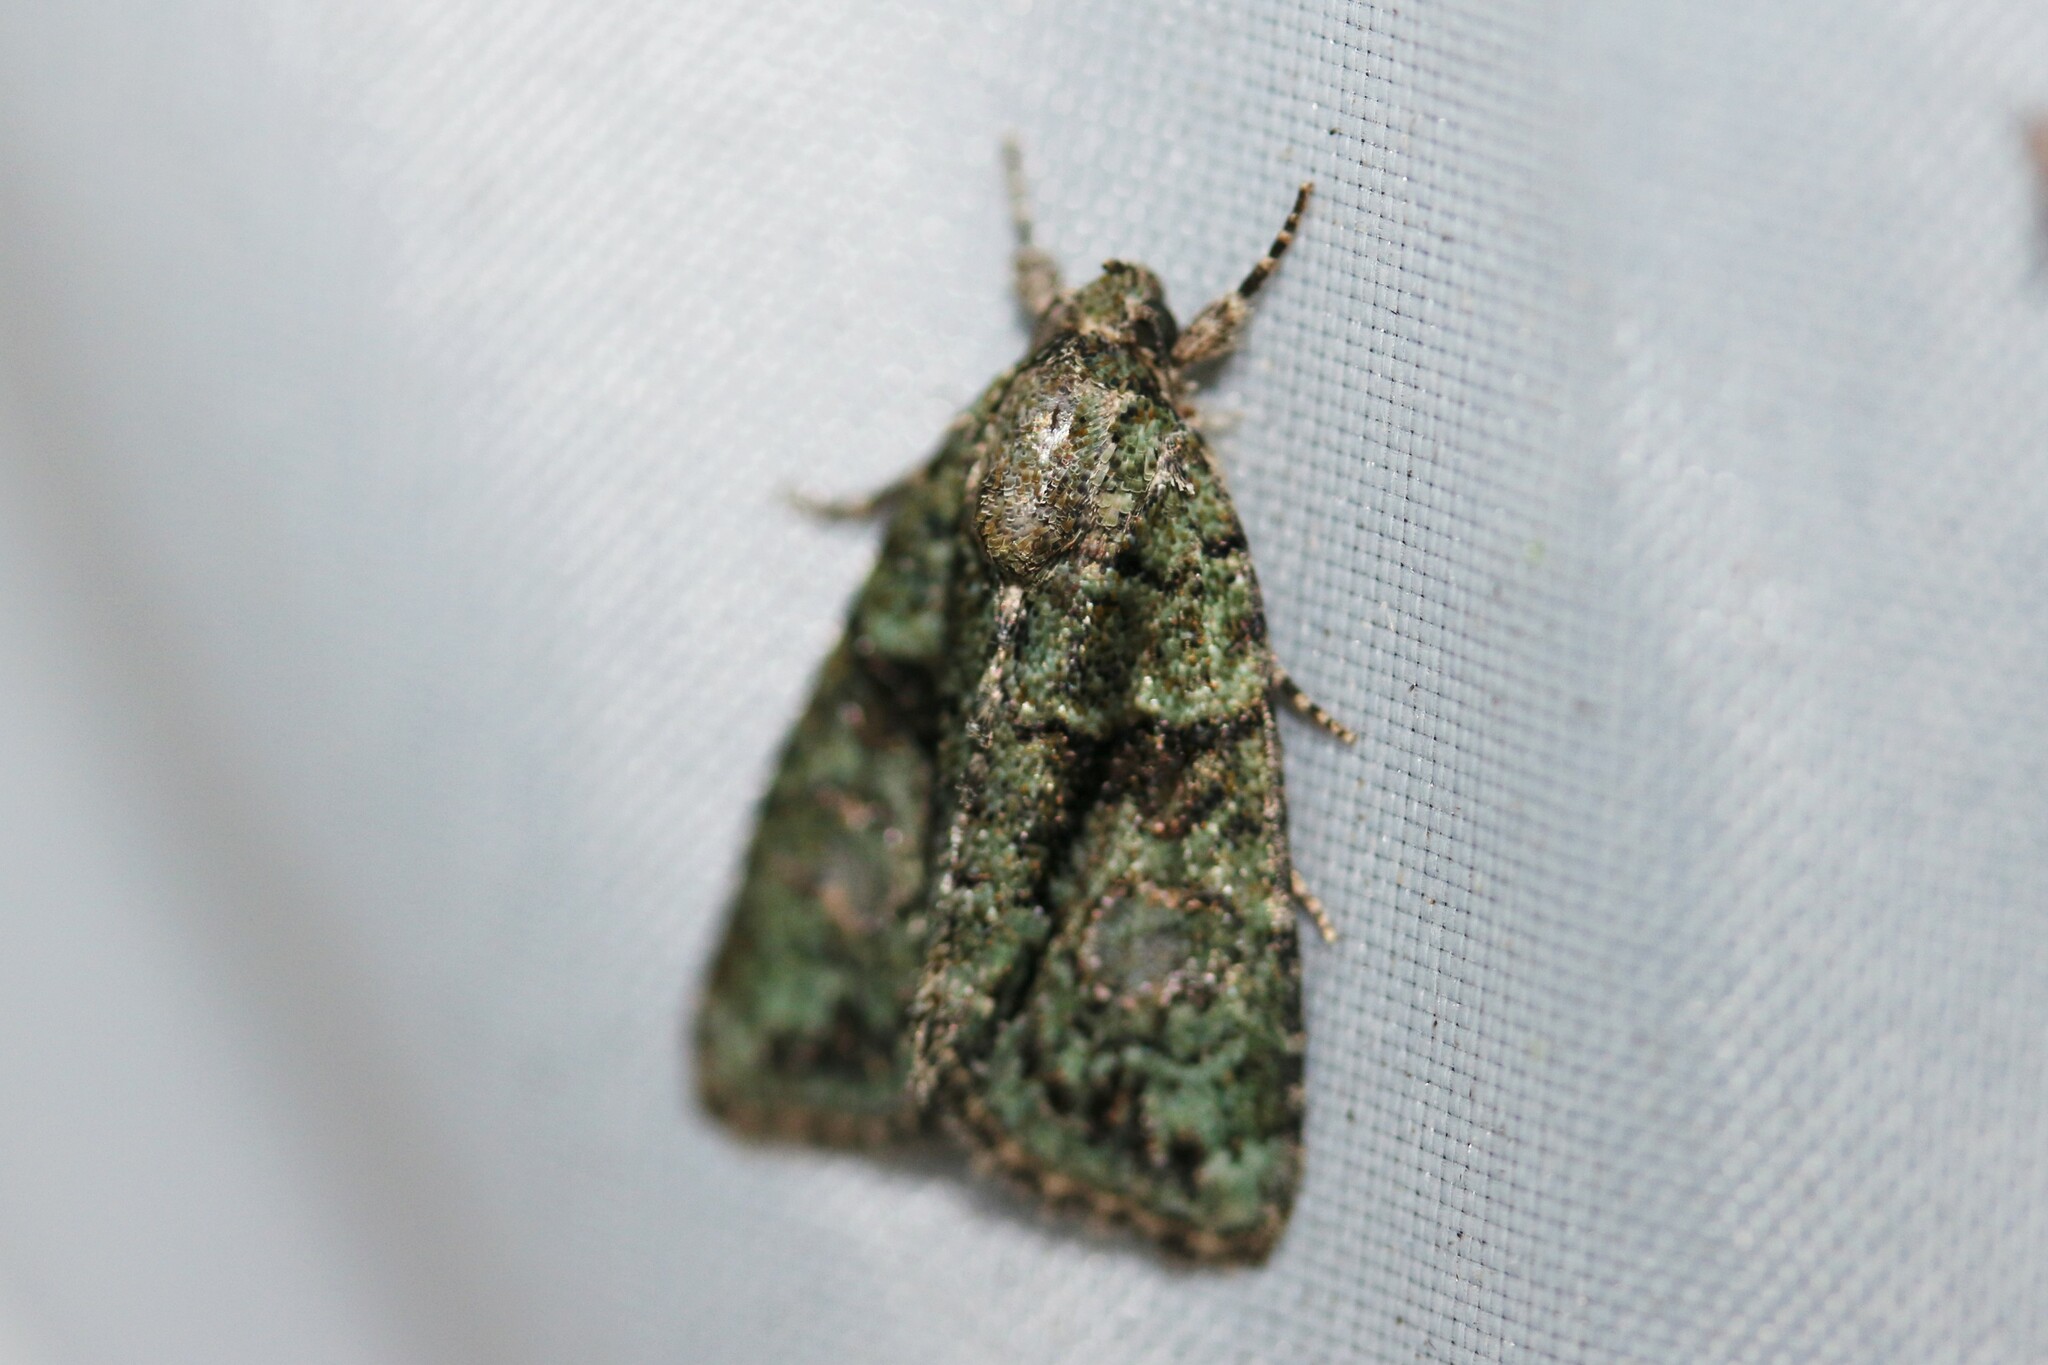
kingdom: Animalia
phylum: Arthropoda
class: Insecta
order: Lepidoptera
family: Noctuidae
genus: Cryphia
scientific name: Cryphia algae
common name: Tree-lichen beauty
